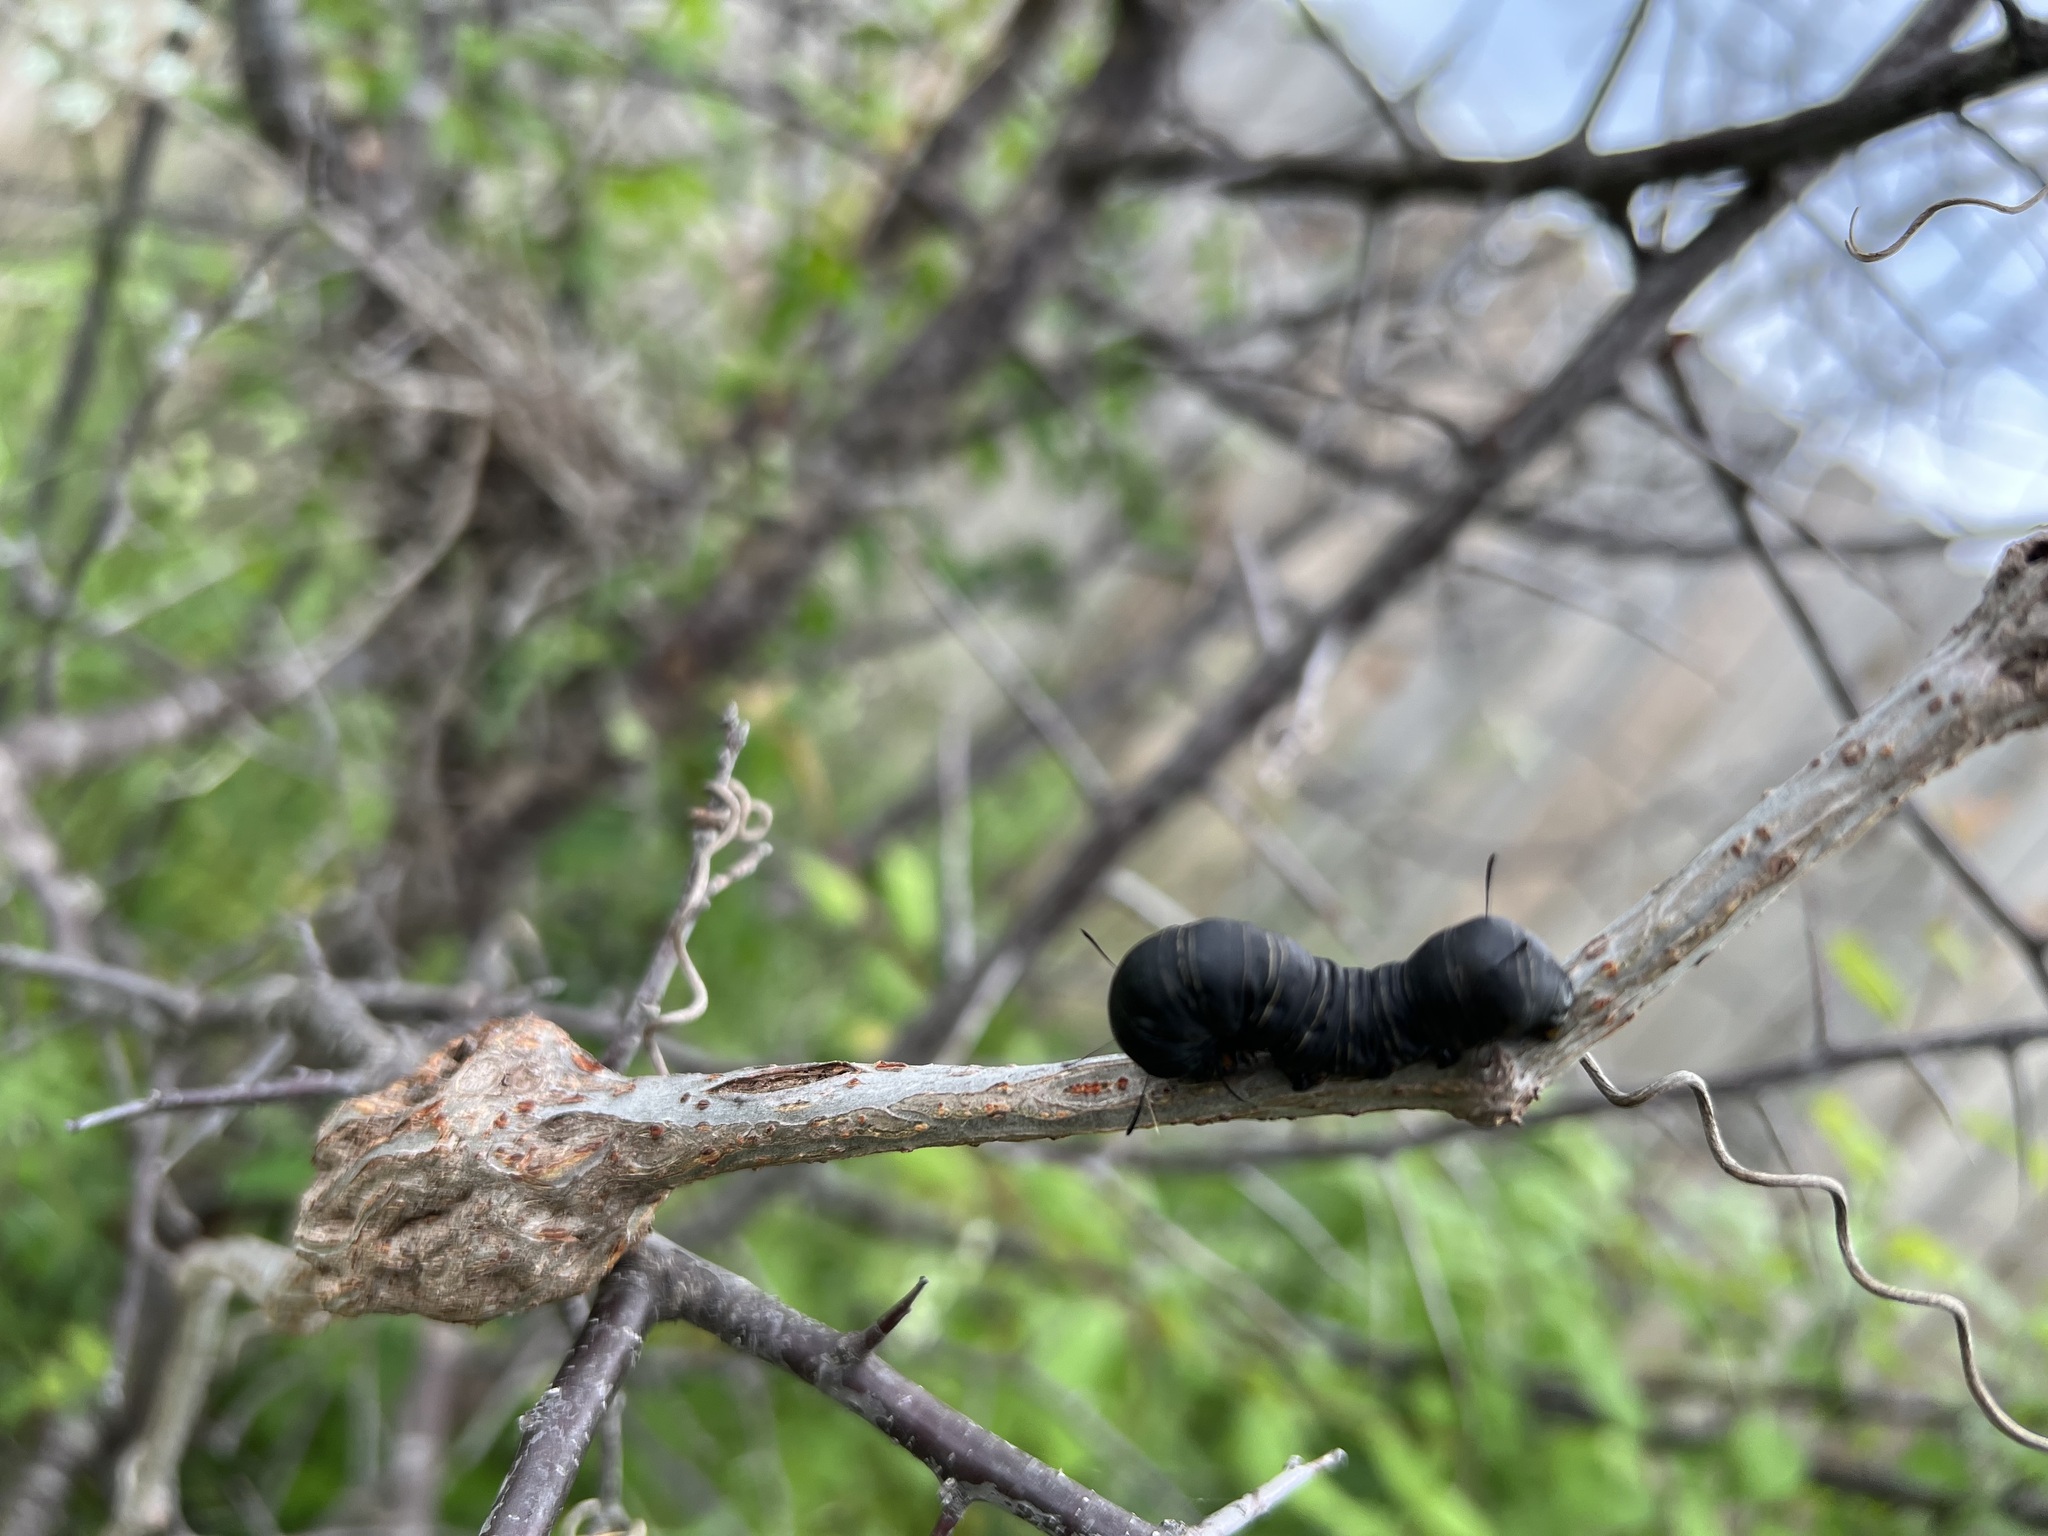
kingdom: Animalia
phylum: Arthropoda
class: Insecta
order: Lepidoptera
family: Noctuidae
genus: Xerociris
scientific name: Xerociris wilsonii
